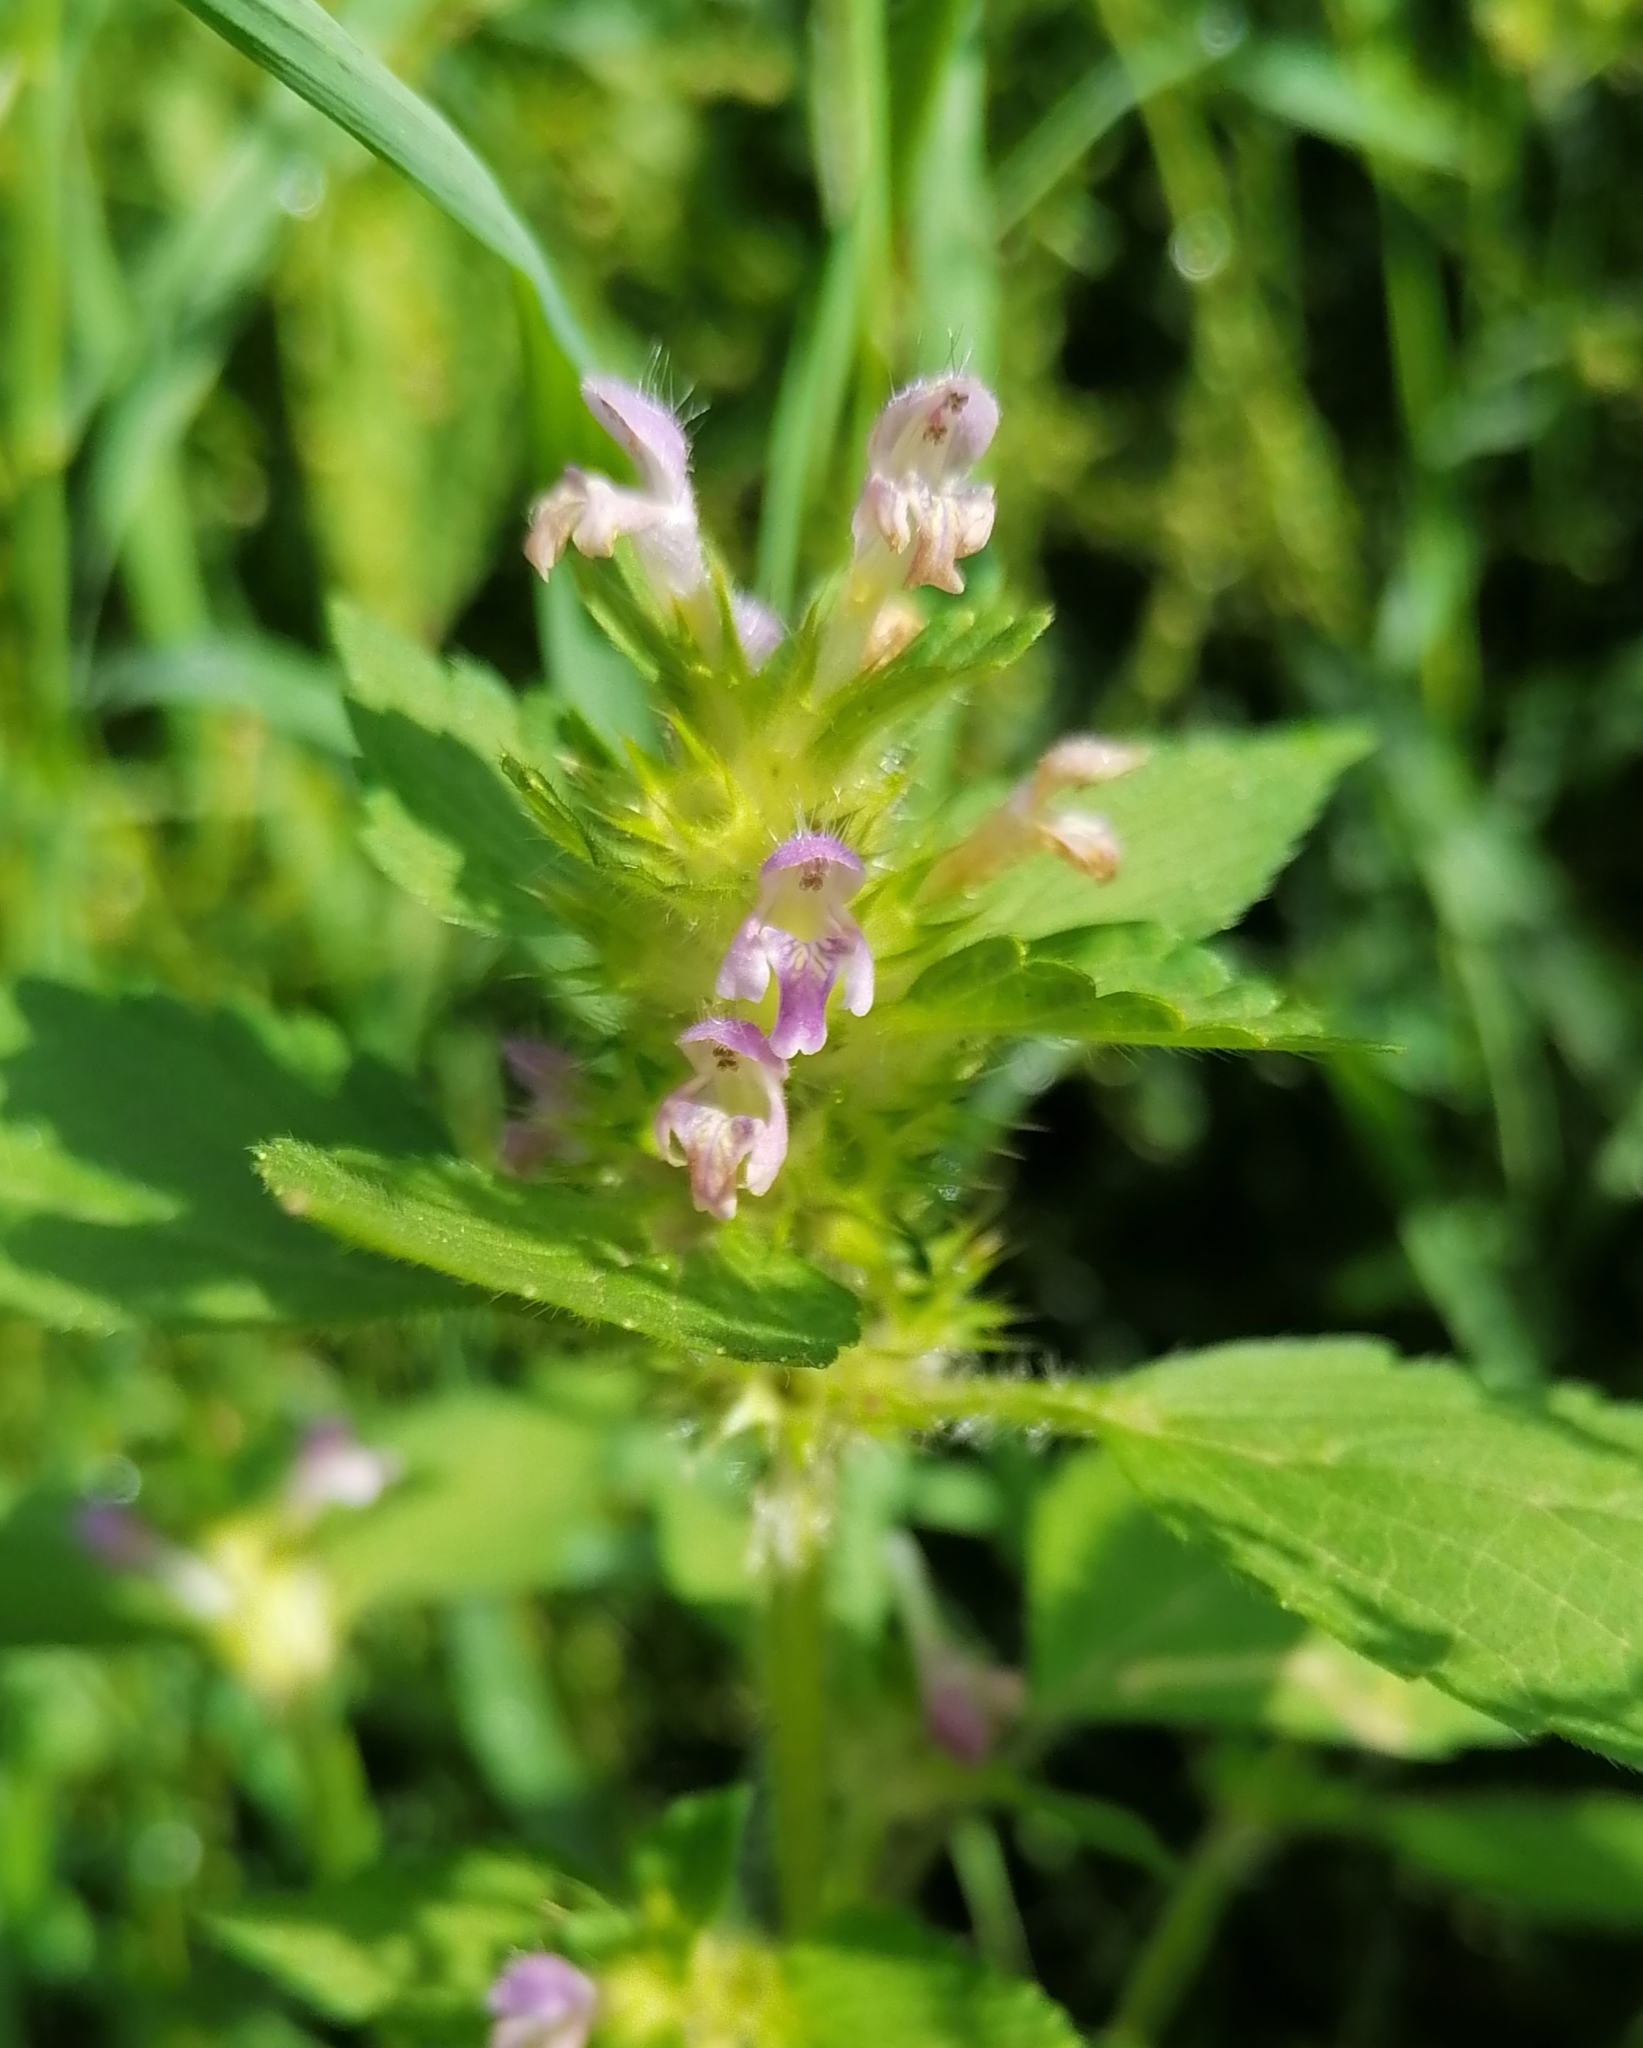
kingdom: Plantae
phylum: Tracheophyta
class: Magnoliopsida
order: Lamiales
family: Lamiaceae
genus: Galeopsis
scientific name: Galeopsis bifida
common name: Bifid hemp-nettle
